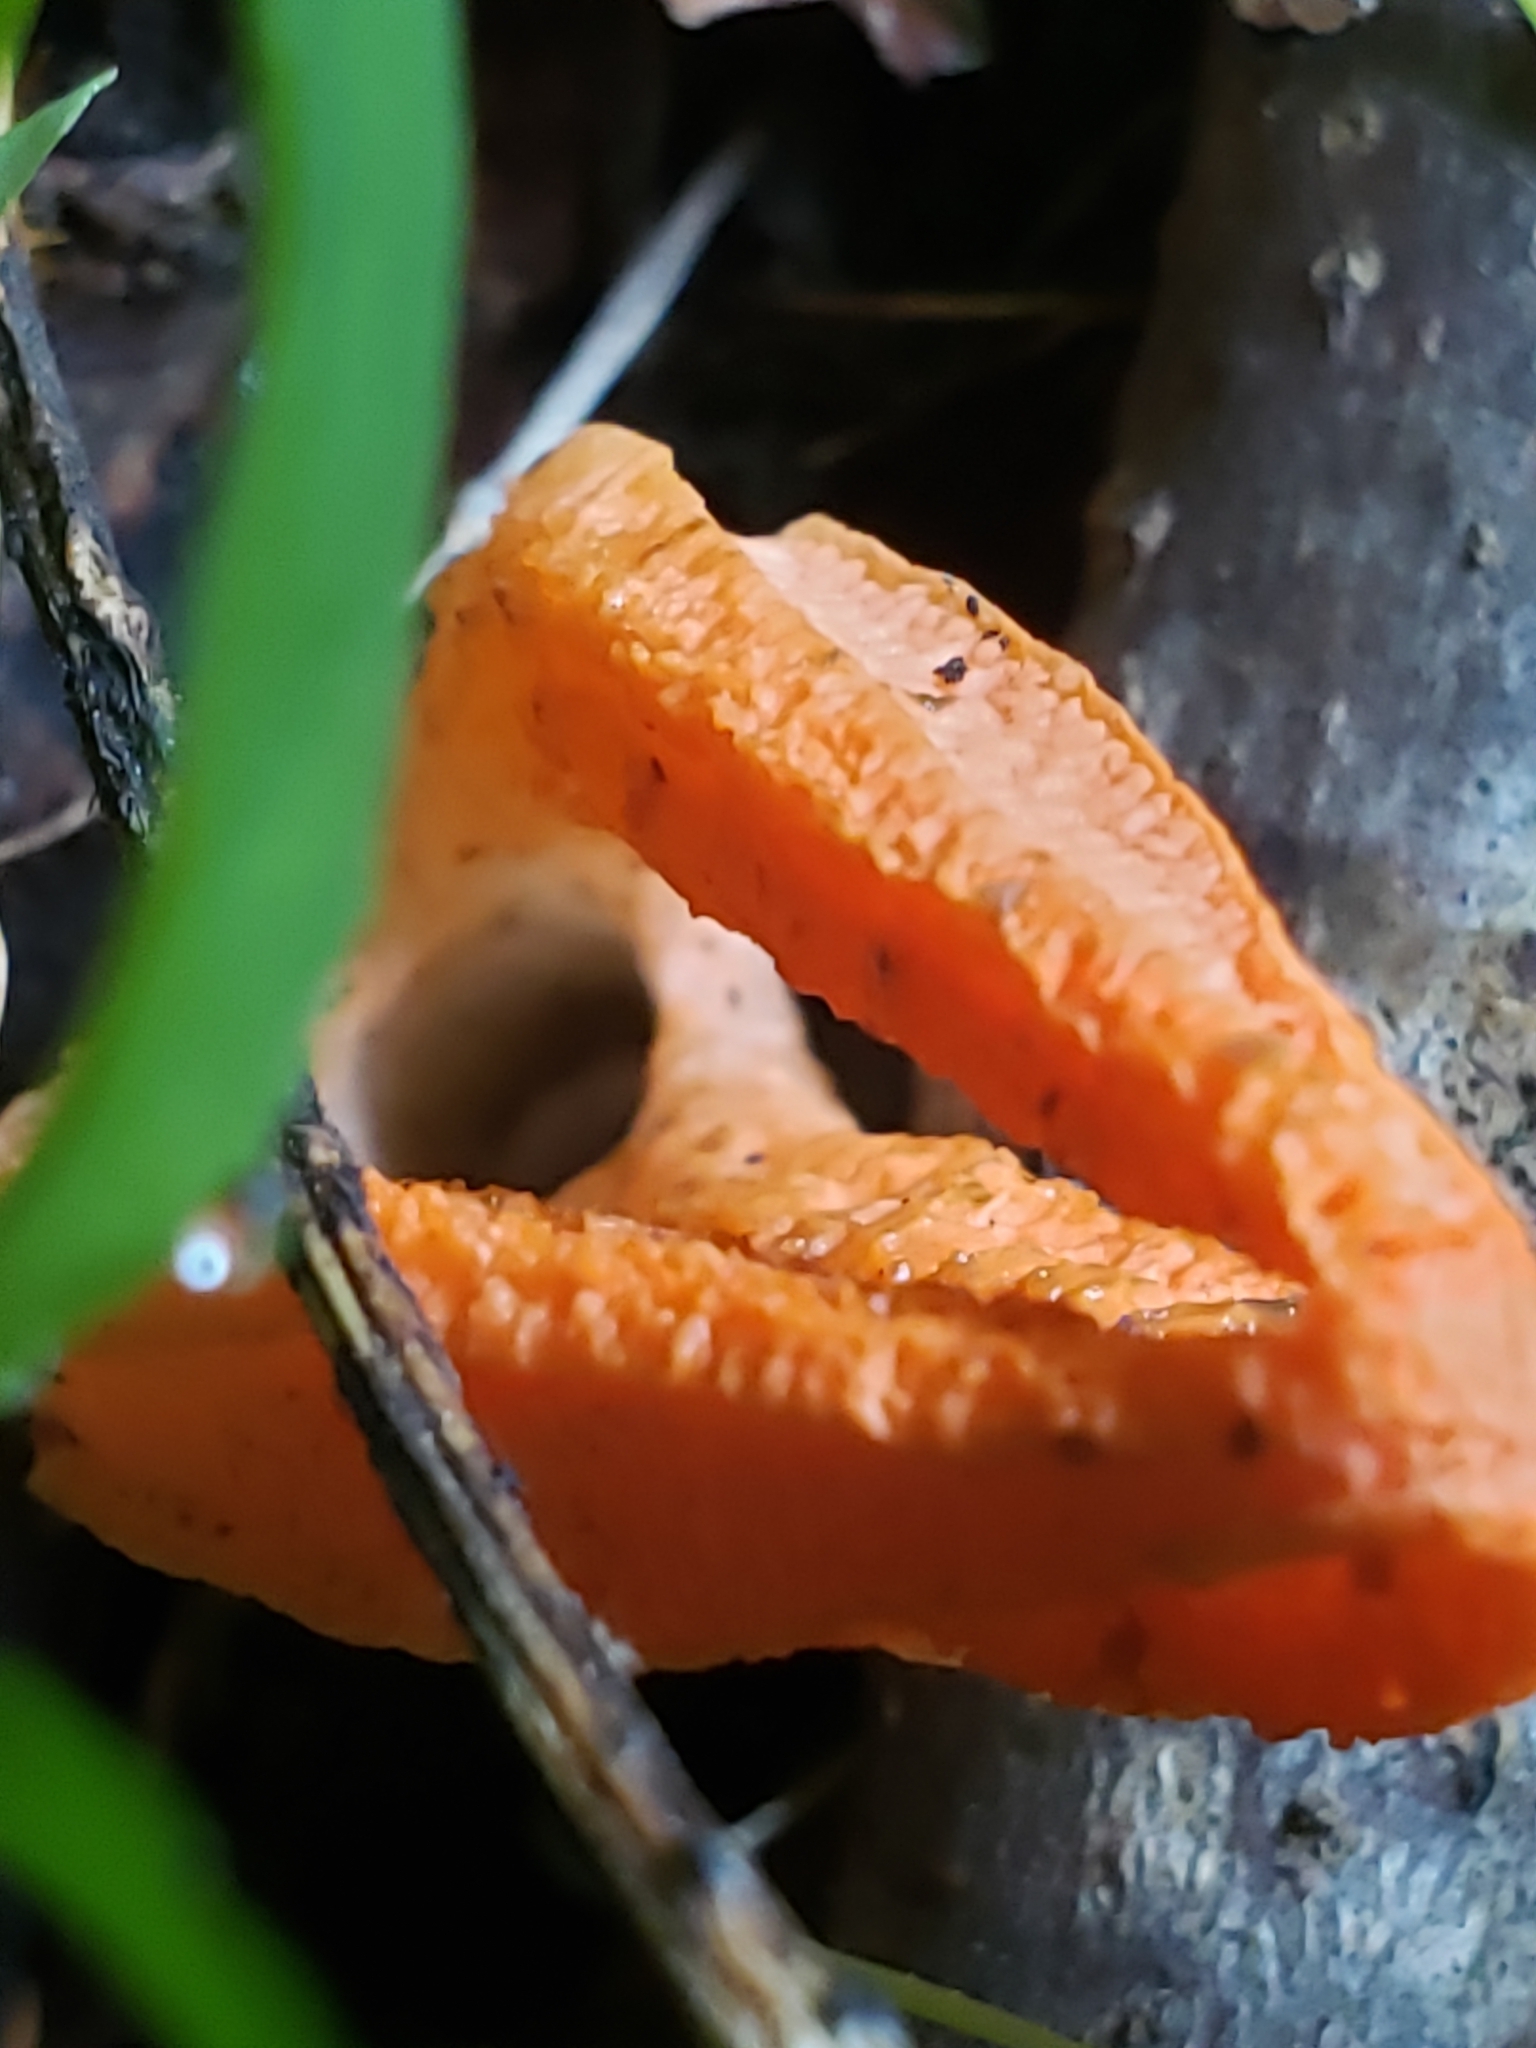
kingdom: Fungi
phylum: Basidiomycota
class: Agaricomycetes
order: Phallales
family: Phallaceae
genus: Pseudocolus
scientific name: Pseudocolus fusiformis
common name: Stinky squid
